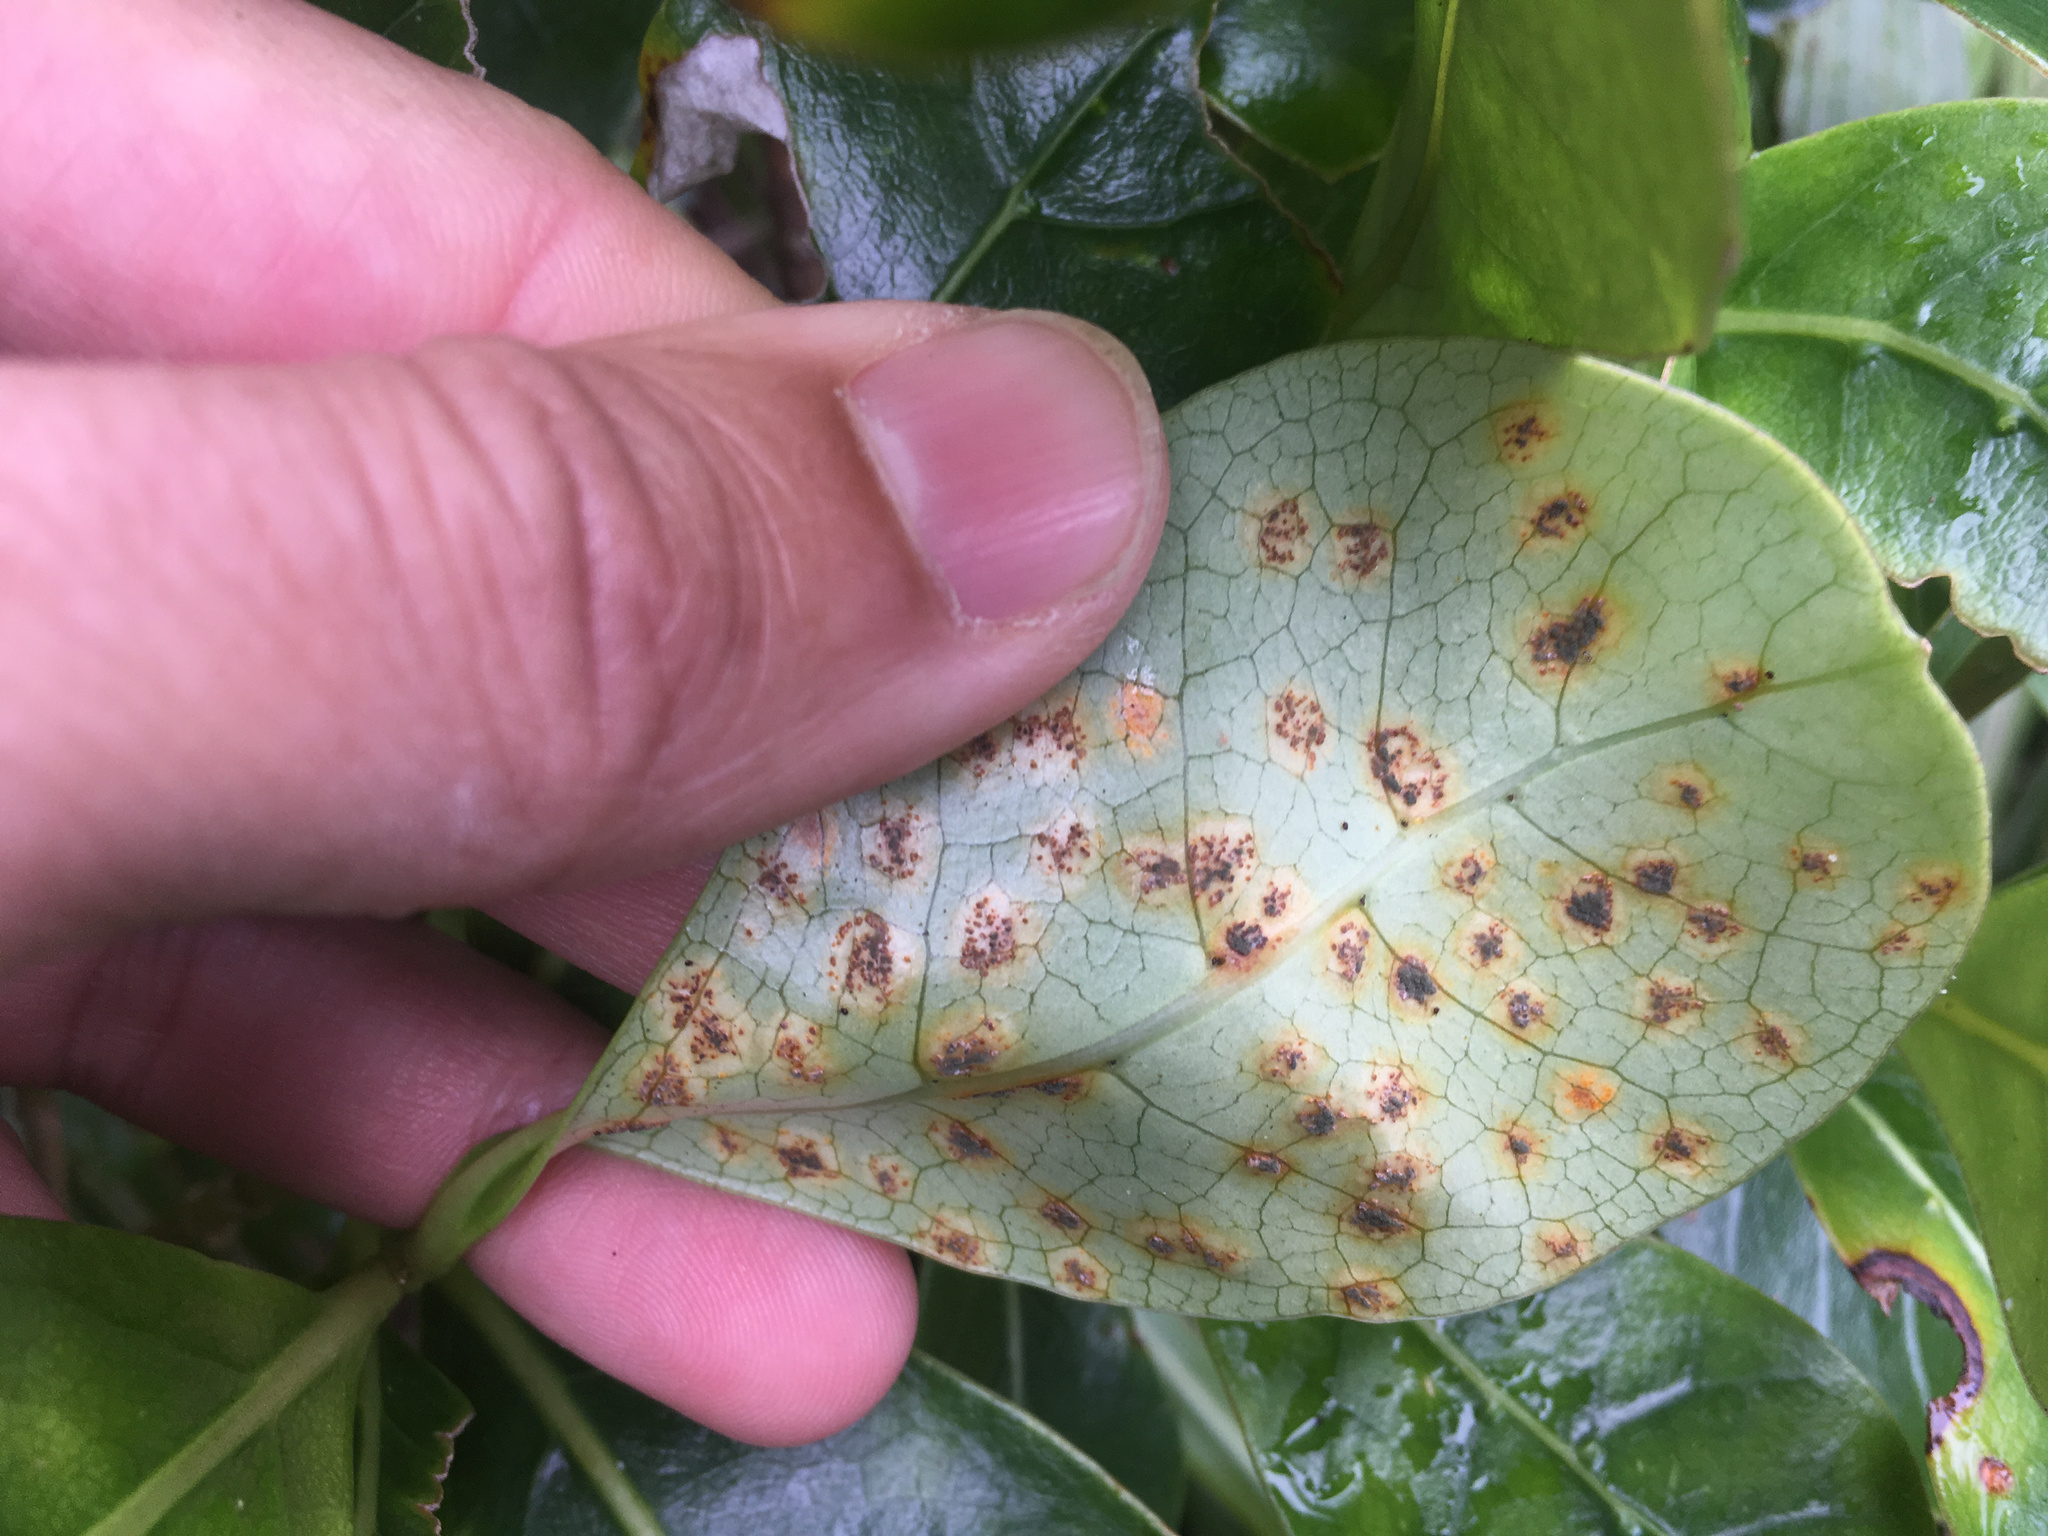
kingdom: Fungi
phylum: Basidiomycota
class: Pucciniomycetes
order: Pucciniales
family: Pucciniaceae
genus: Puccinia
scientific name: Puccinia coprosmae
